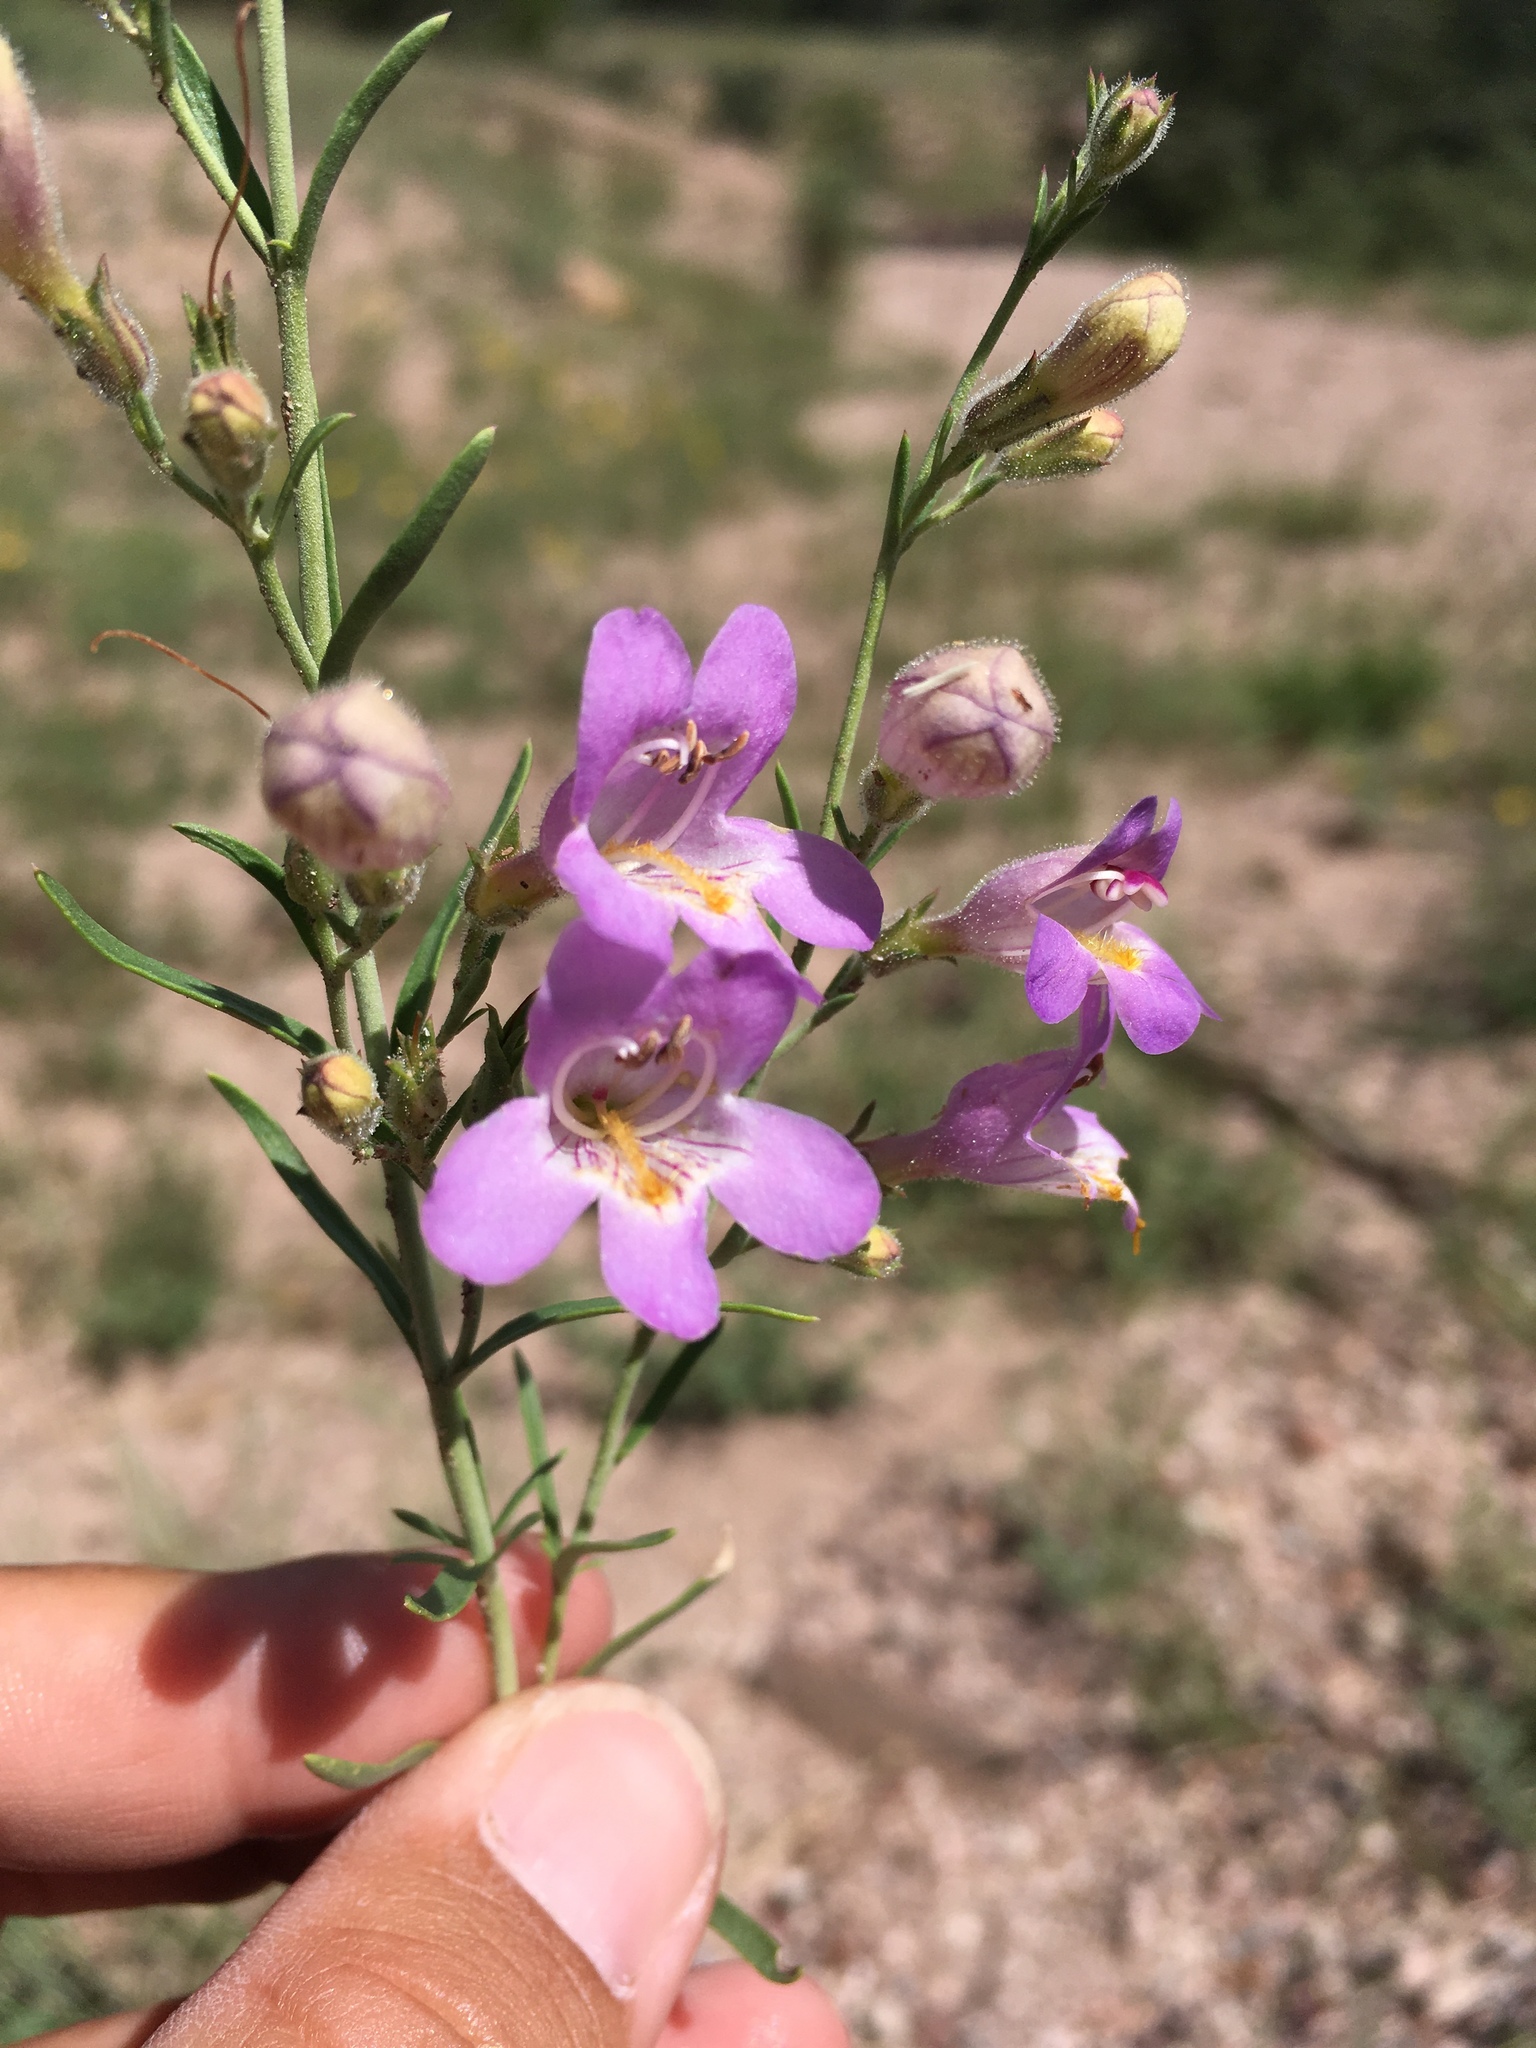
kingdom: Plantae
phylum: Tracheophyta
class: Magnoliopsida
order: Lamiales
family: Plantaginaceae
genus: Penstemon
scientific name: Penstemon linarioides
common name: Siler's penstemon
